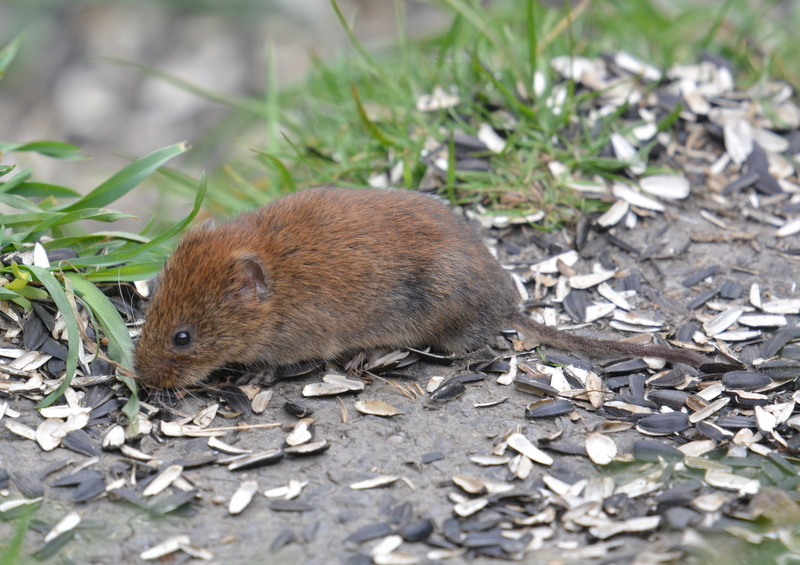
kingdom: Animalia
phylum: Chordata
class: Mammalia
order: Rodentia
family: Cricetidae
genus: Myodes
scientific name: Myodes glareolus
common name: Bank vole
